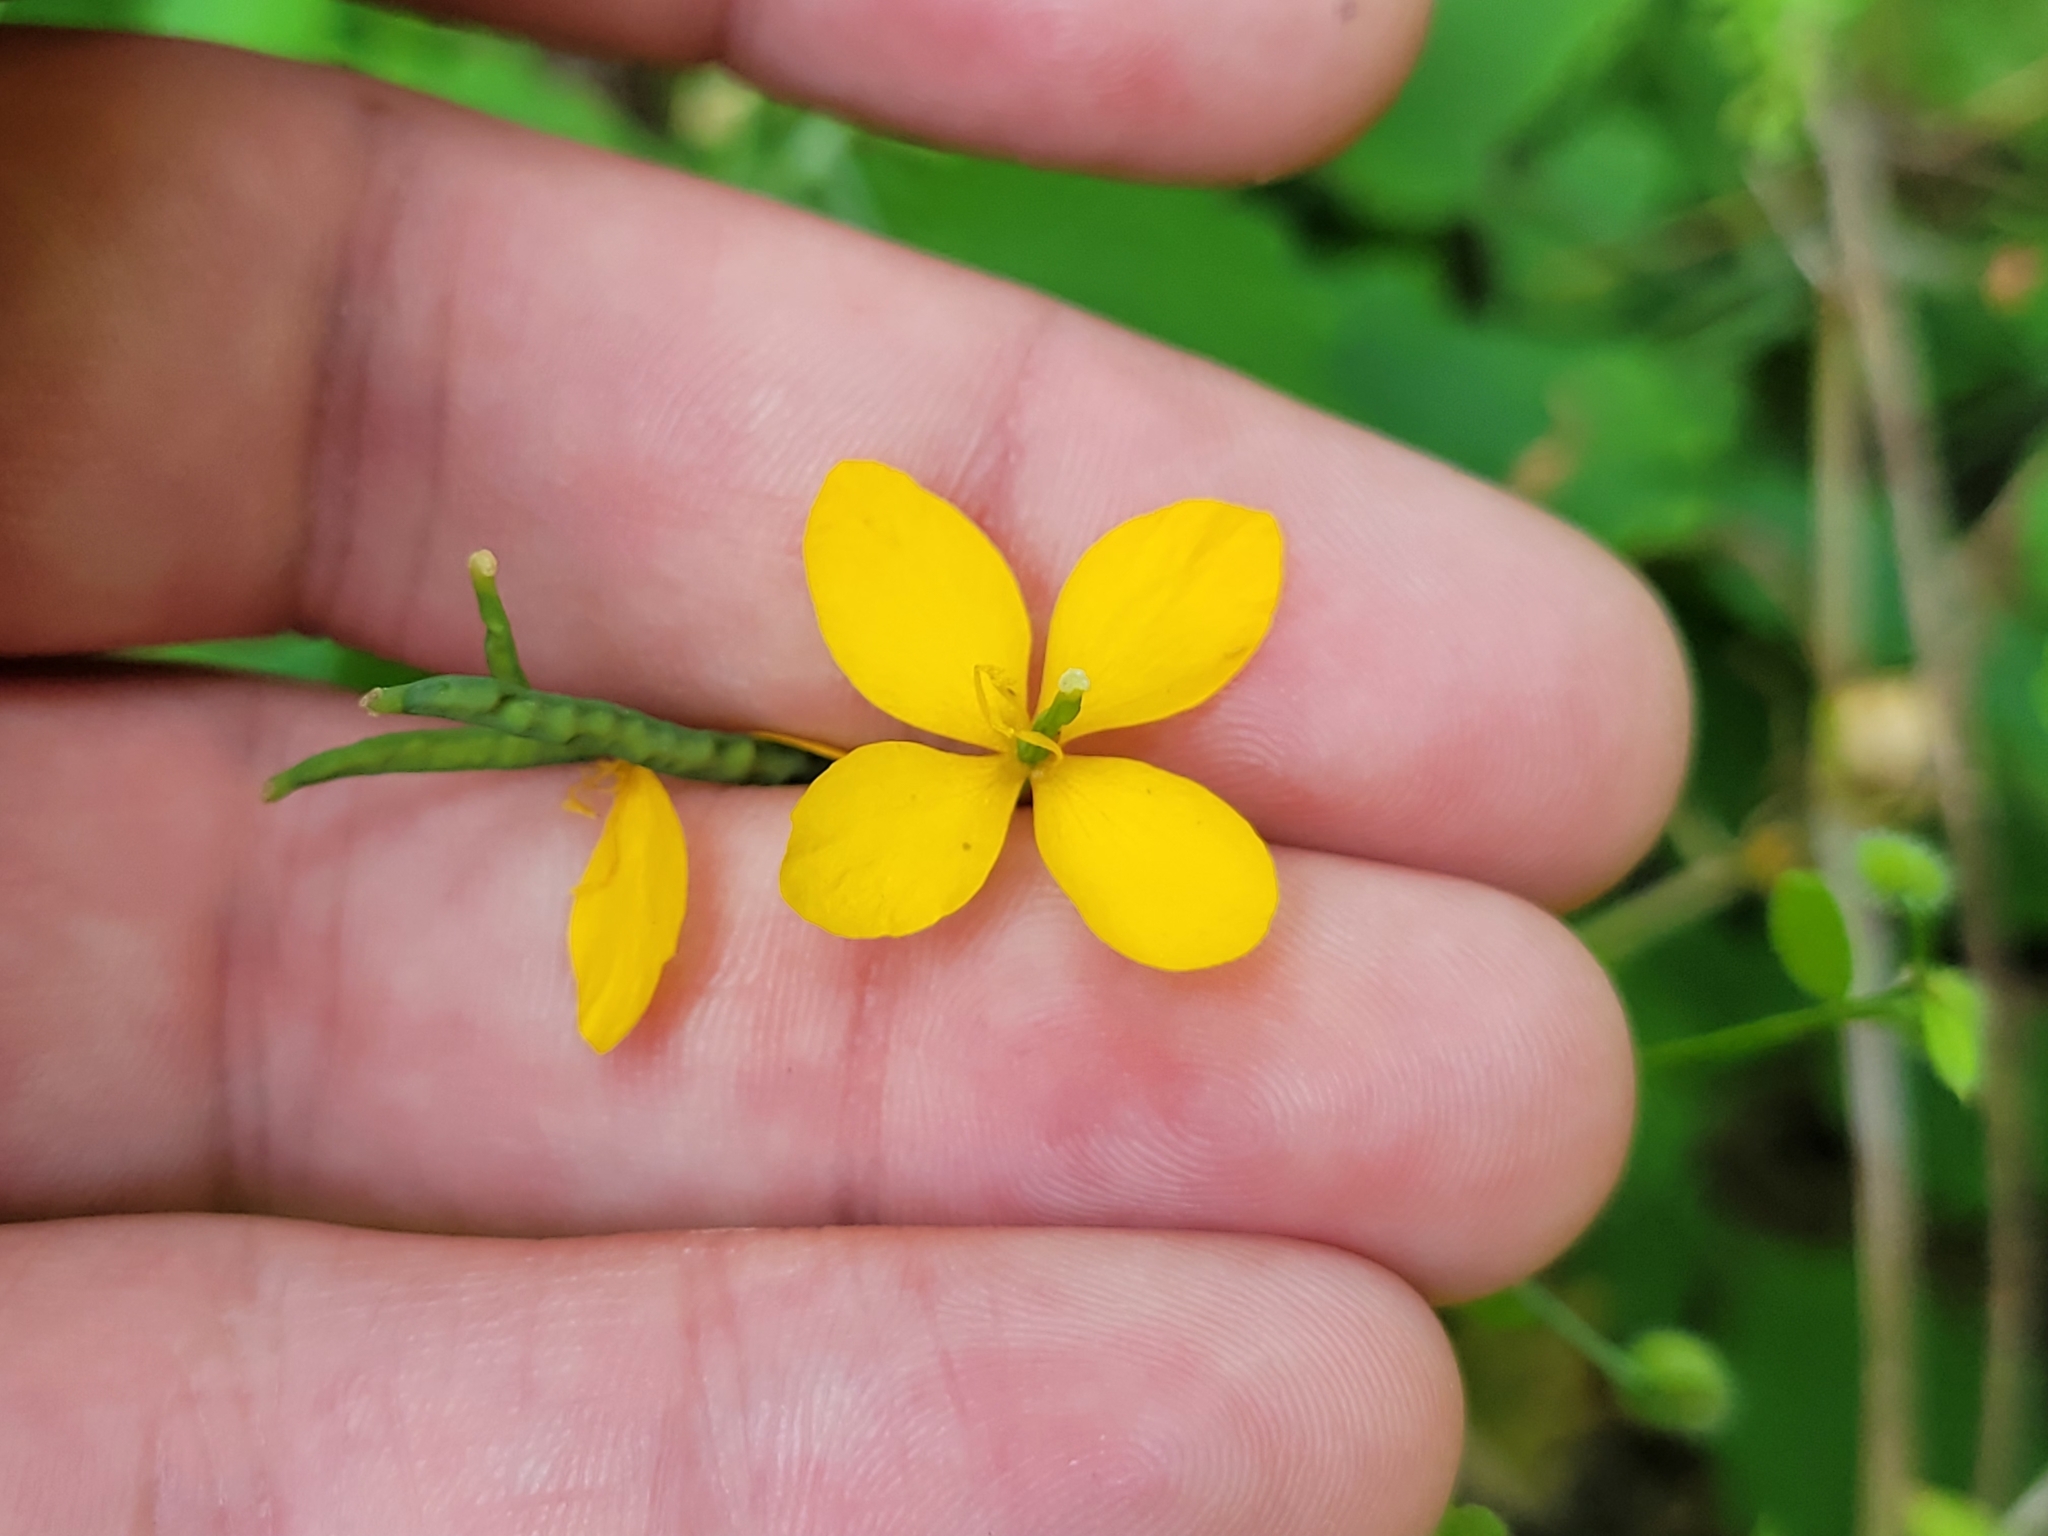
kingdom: Plantae
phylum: Tracheophyta
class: Magnoliopsida
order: Ranunculales
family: Papaveraceae
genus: Chelidonium
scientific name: Chelidonium majus
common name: Greater celandine
